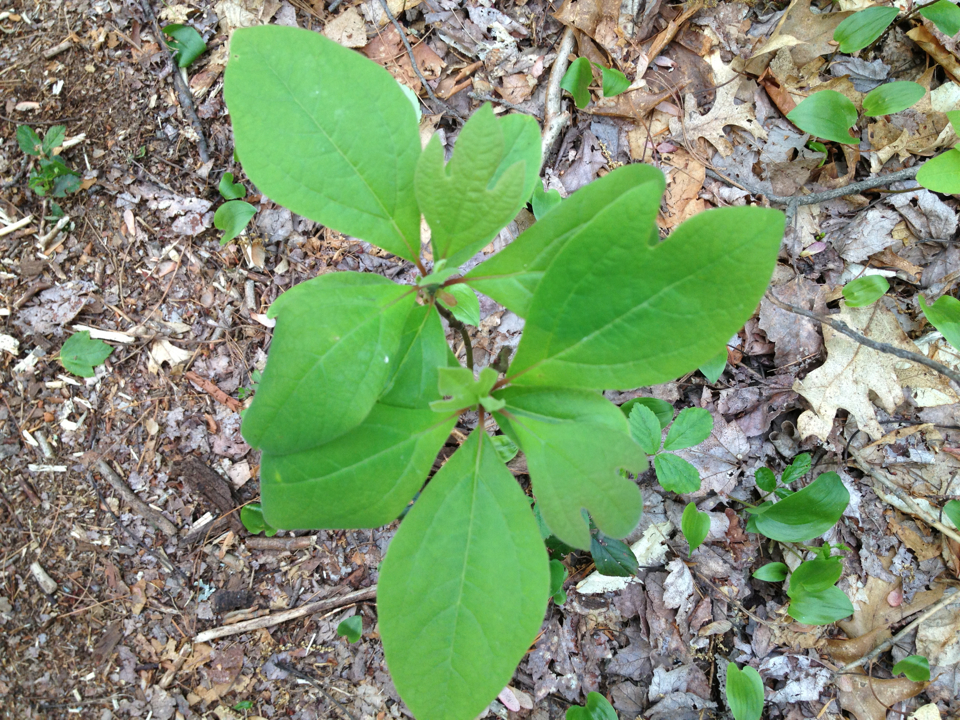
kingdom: Plantae
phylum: Tracheophyta
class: Magnoliopsida
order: Laurales
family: Lauraceae
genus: Sassafras
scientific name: Sassafras albidum
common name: Sassafras
